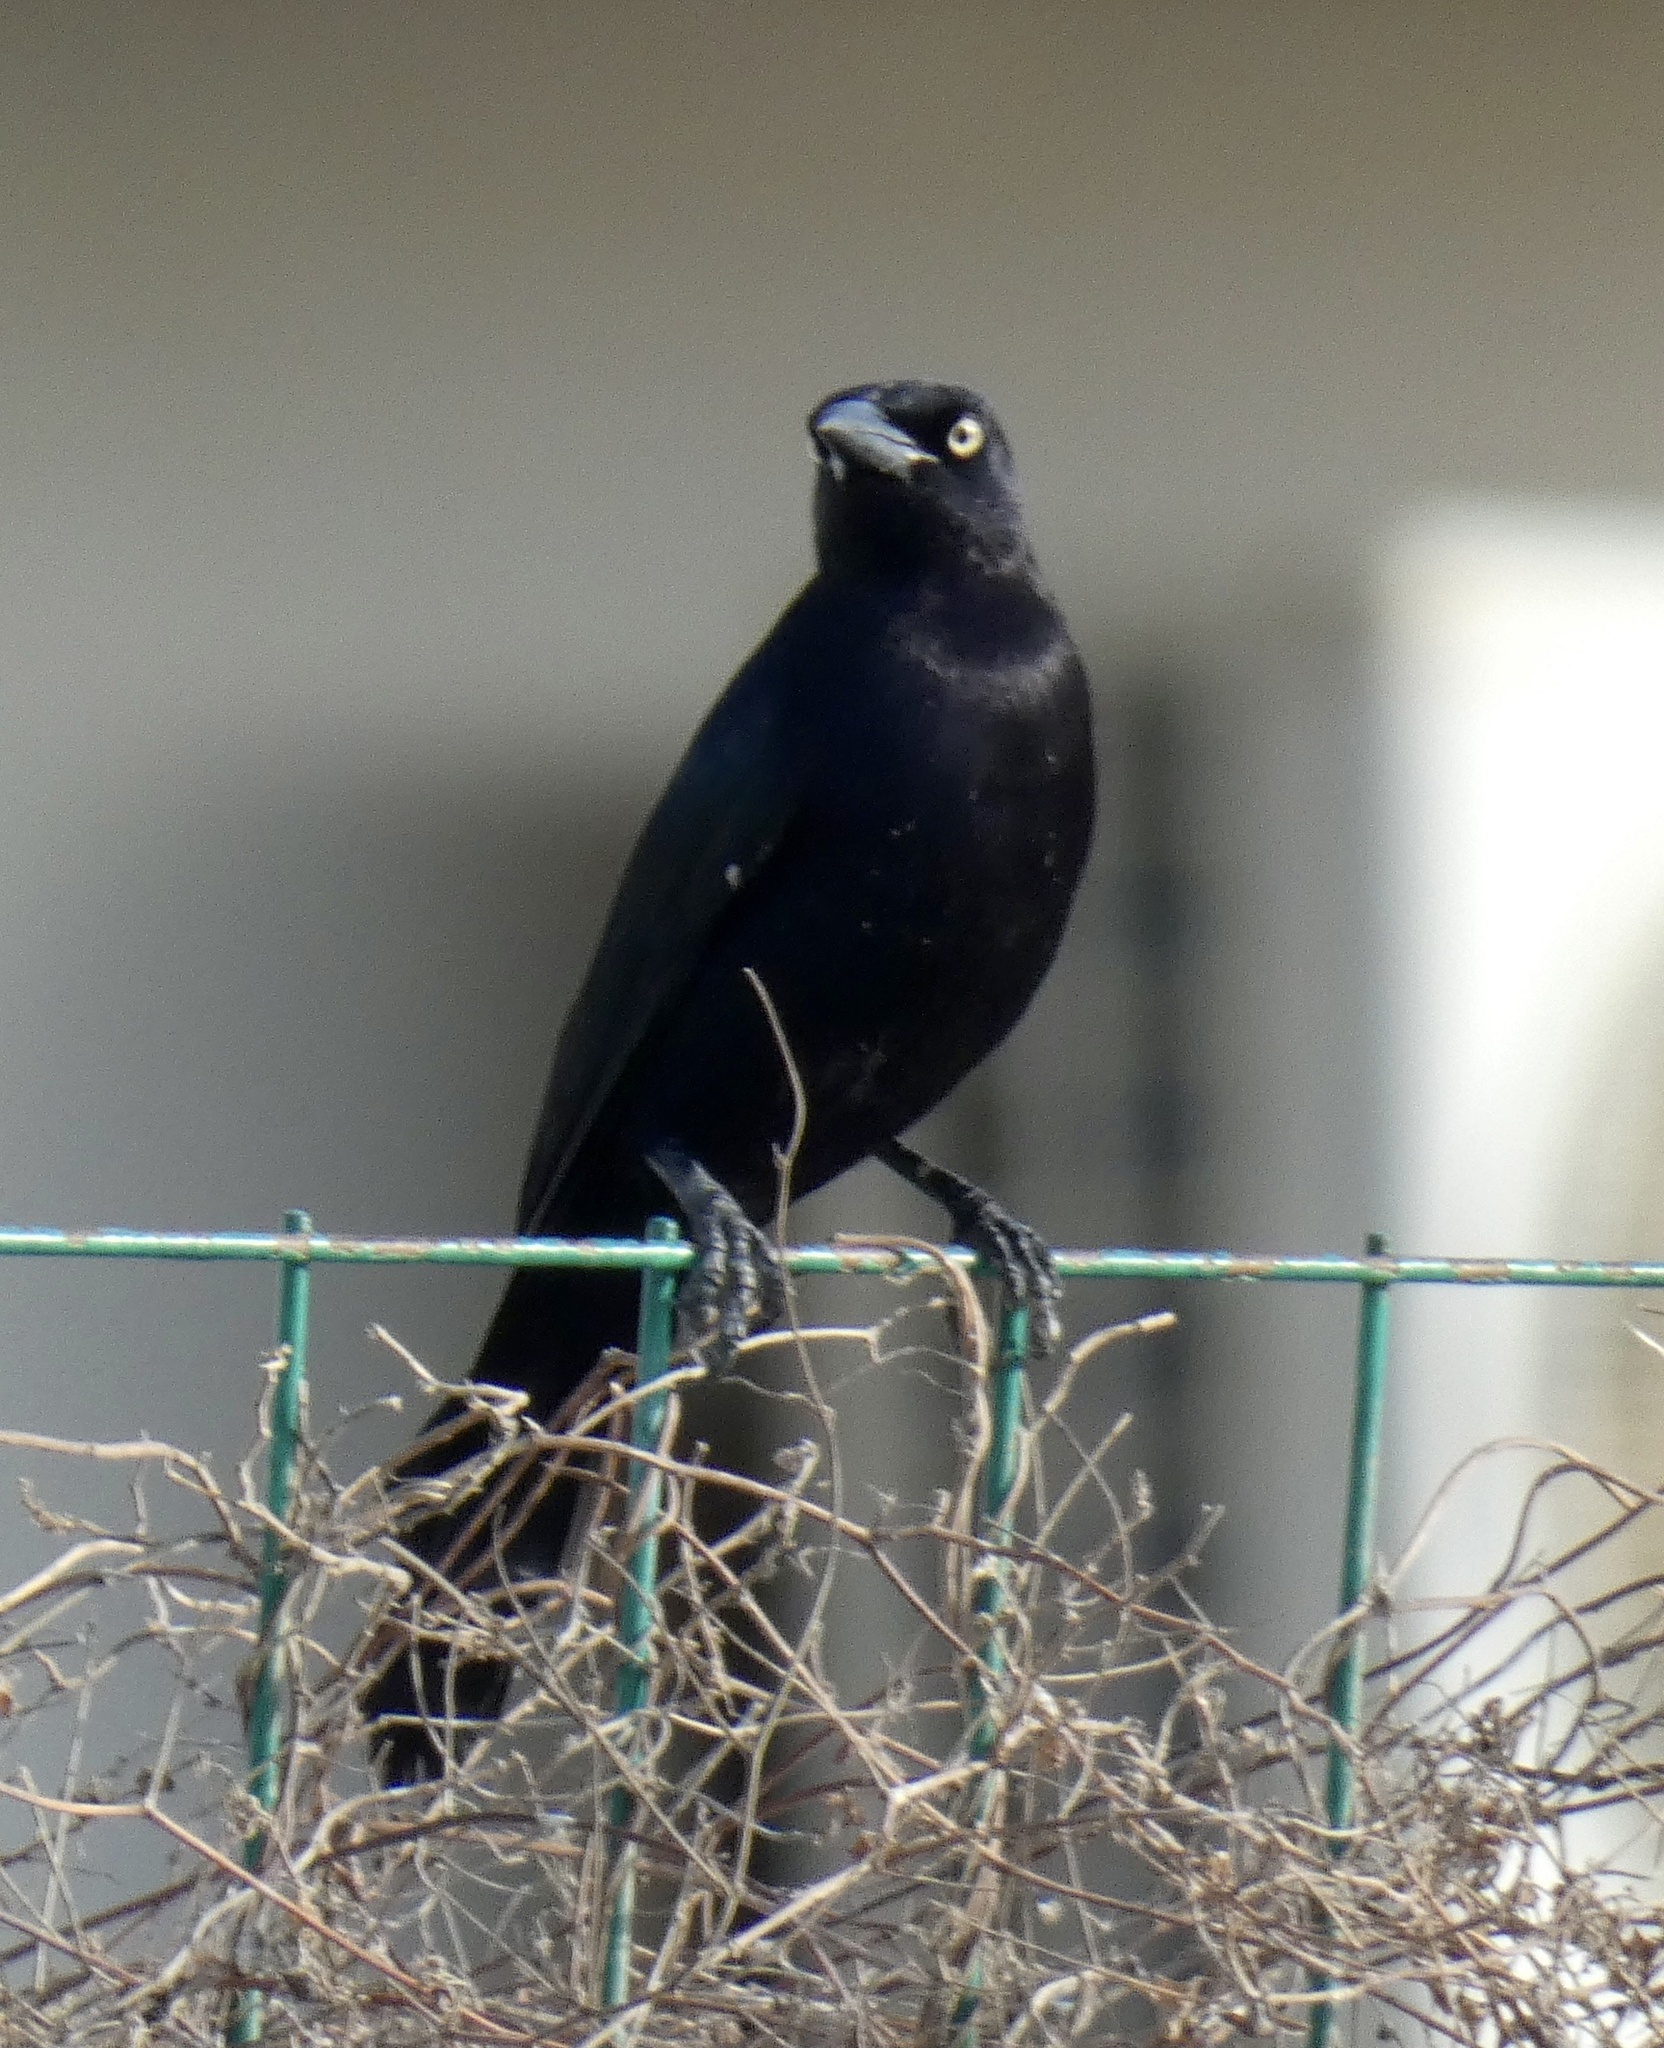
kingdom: Animalia
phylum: Chordata
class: Aves
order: Passeriformes
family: Icteridae
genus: Quiscalus
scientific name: Quiscalus lugubris
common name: Carib grackle
